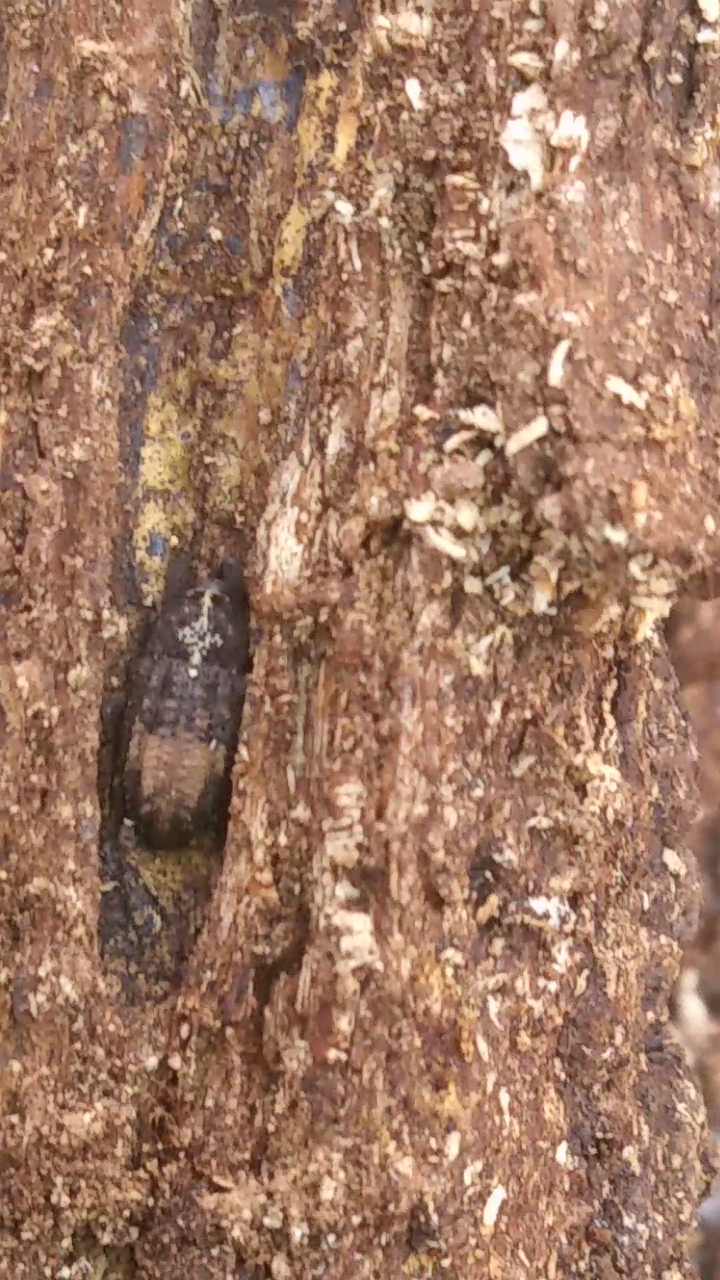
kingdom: Animalia
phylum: Arthropoda
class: Insecta
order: Coleoptera
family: Curculionidae
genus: Cophes
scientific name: Cophes obtentus
